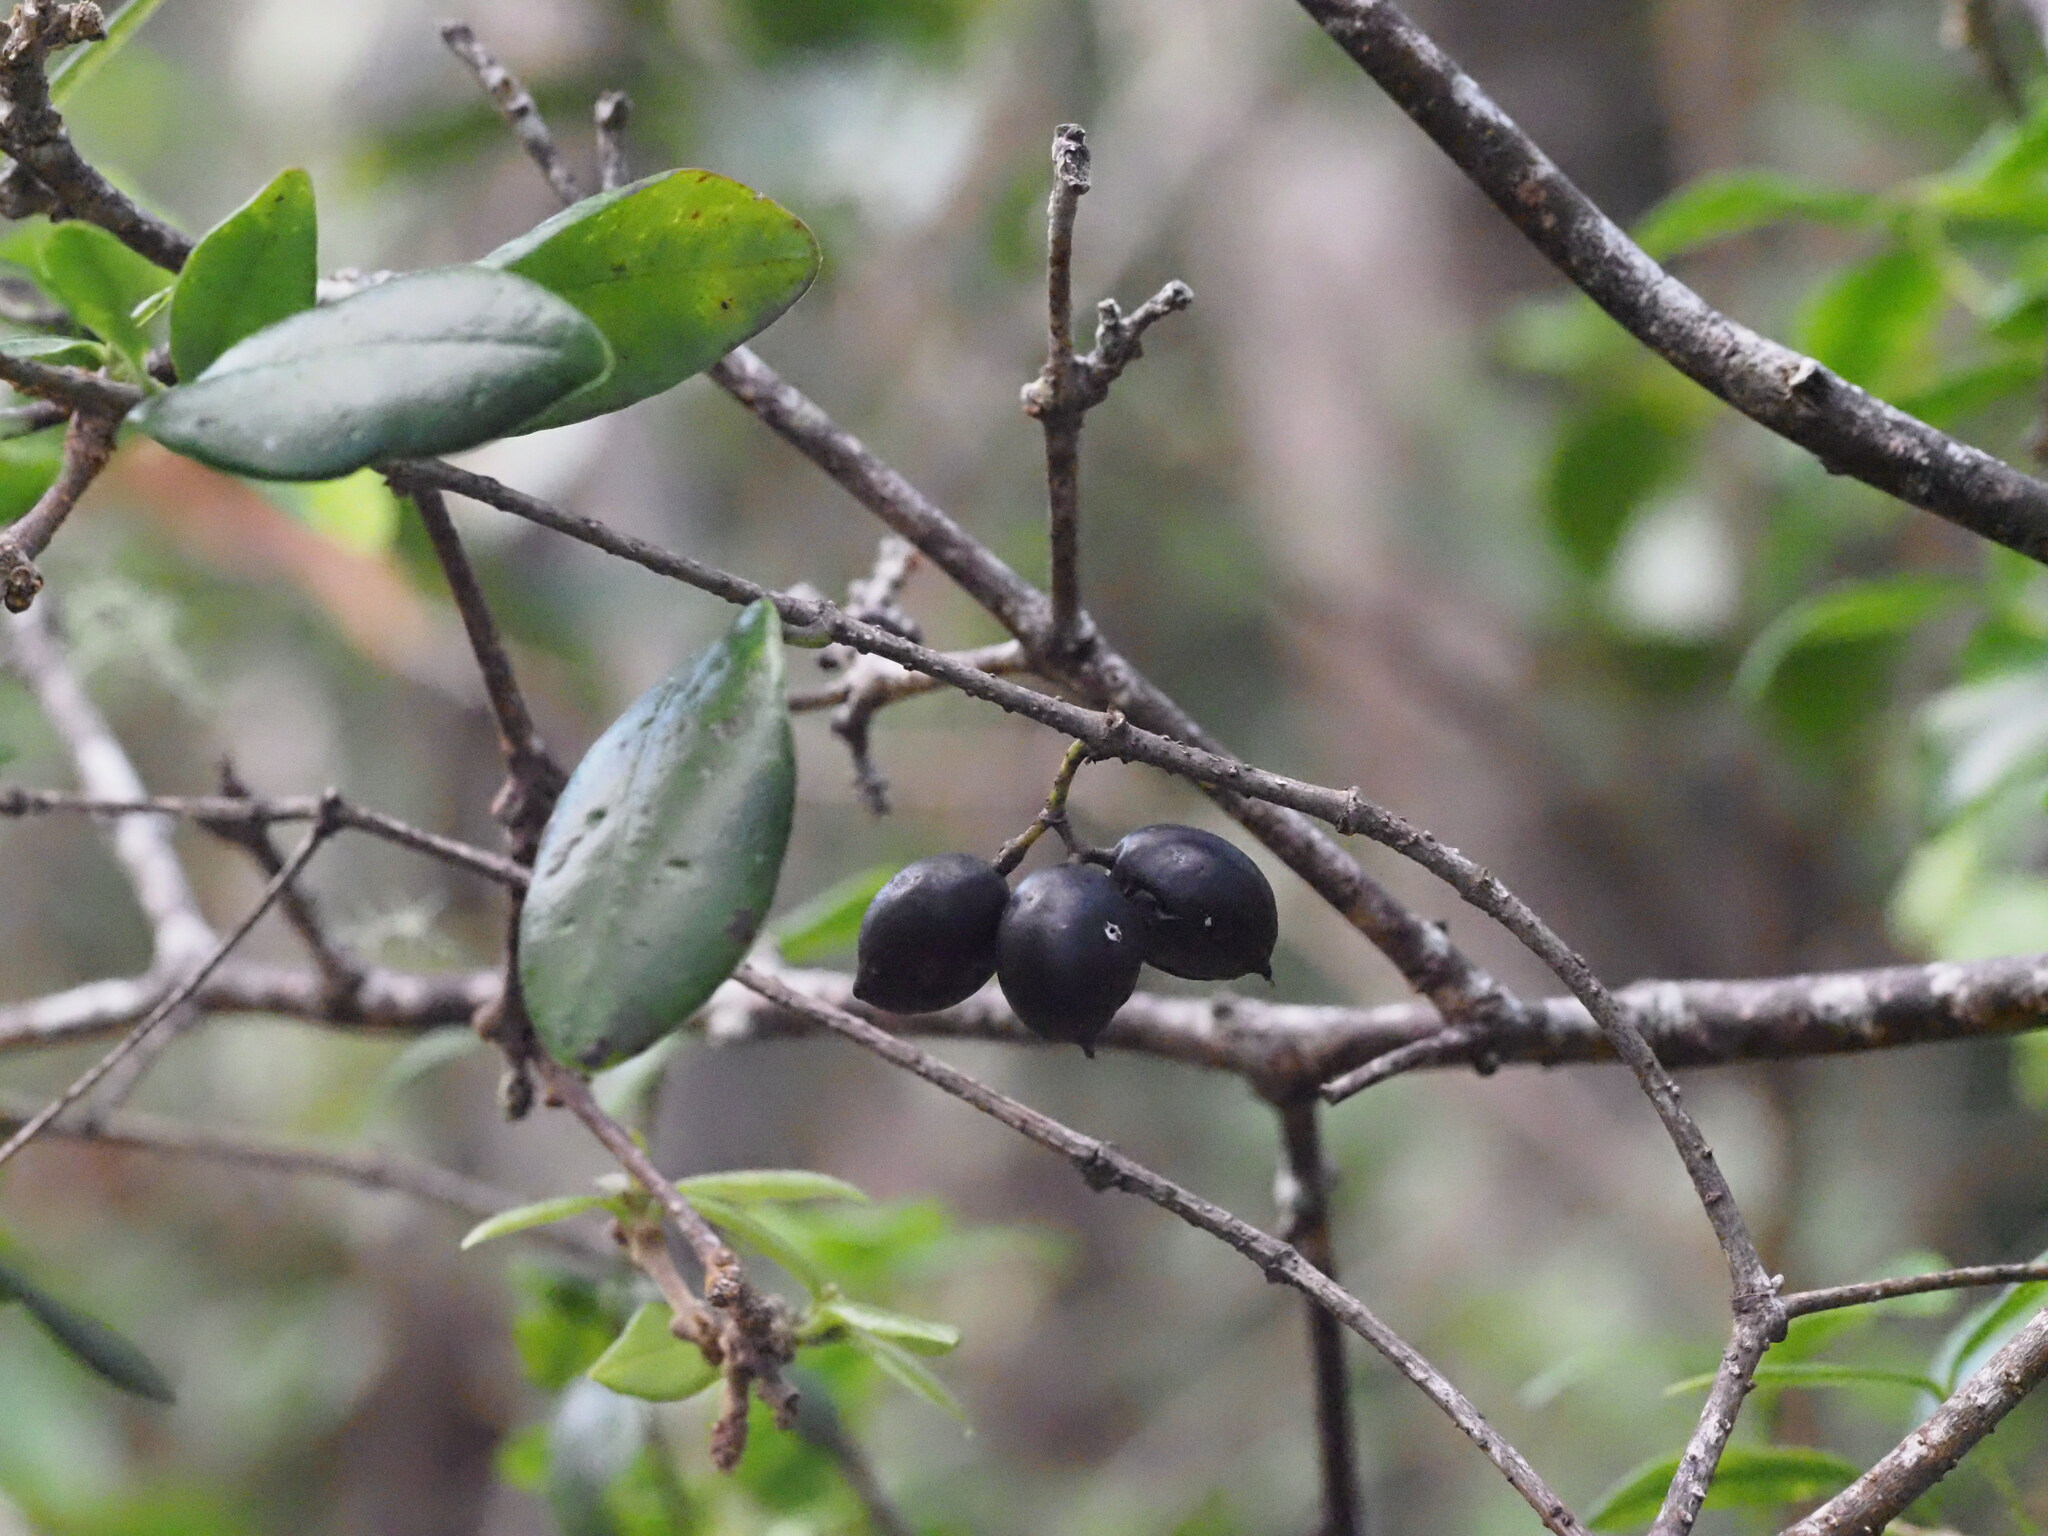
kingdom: Plantae
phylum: Tracheophyta
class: Magnoliopsida
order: Gentianales
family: Apocynaceae
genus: Alyxia
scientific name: Alyxia stellata
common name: Maile
